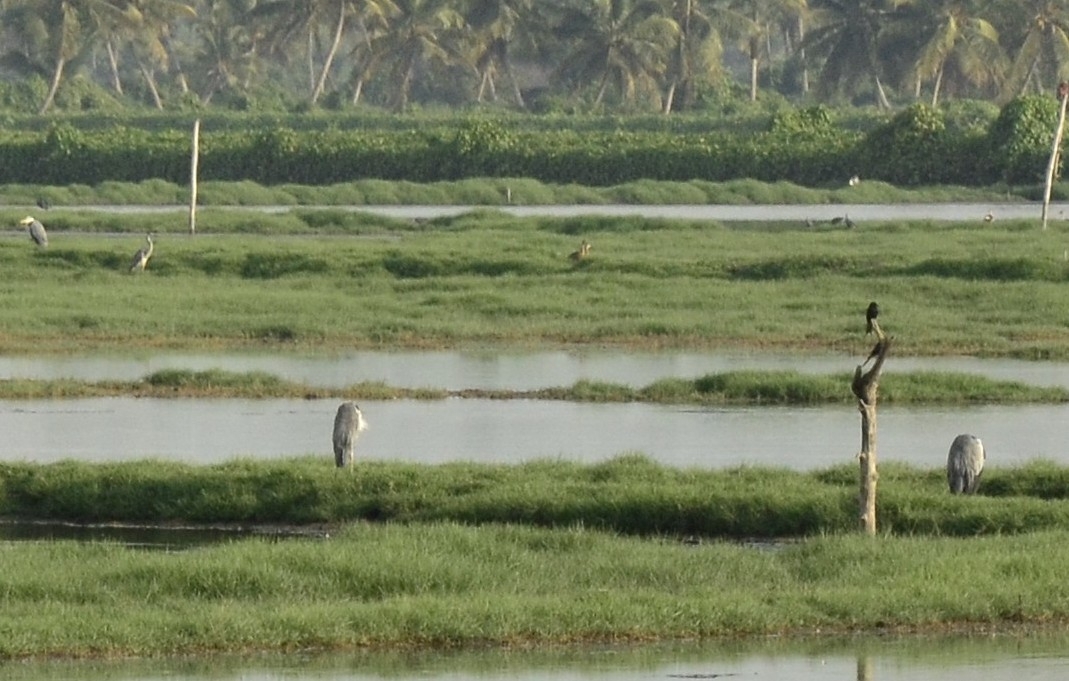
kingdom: Animalia
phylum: Chordata
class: Aves
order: Pelecaniformes
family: Ardeidae
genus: Ardea
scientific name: Ardea cinerea
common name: Grey heron
